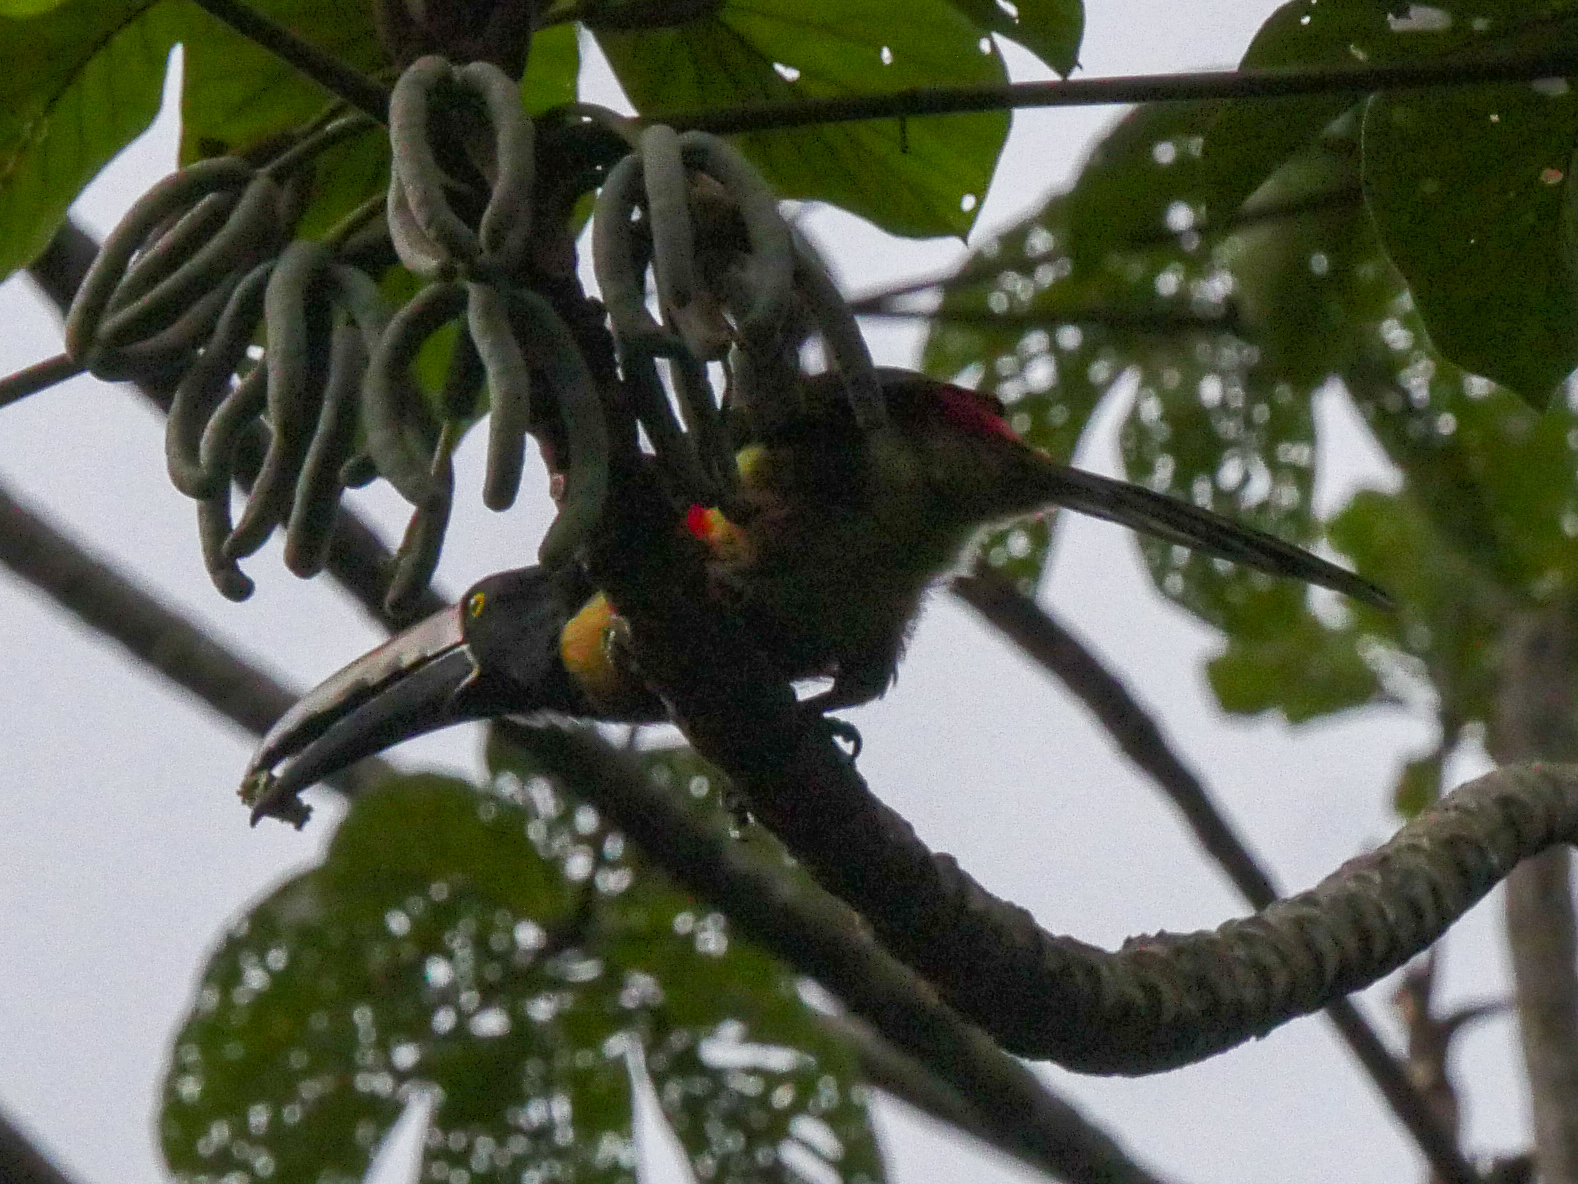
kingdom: Animalia
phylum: Chordata
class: Aves
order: Piciformes
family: Ramphastidae
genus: Pteroglossus
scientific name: Pteroglossus torquatus
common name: Collared aracari
